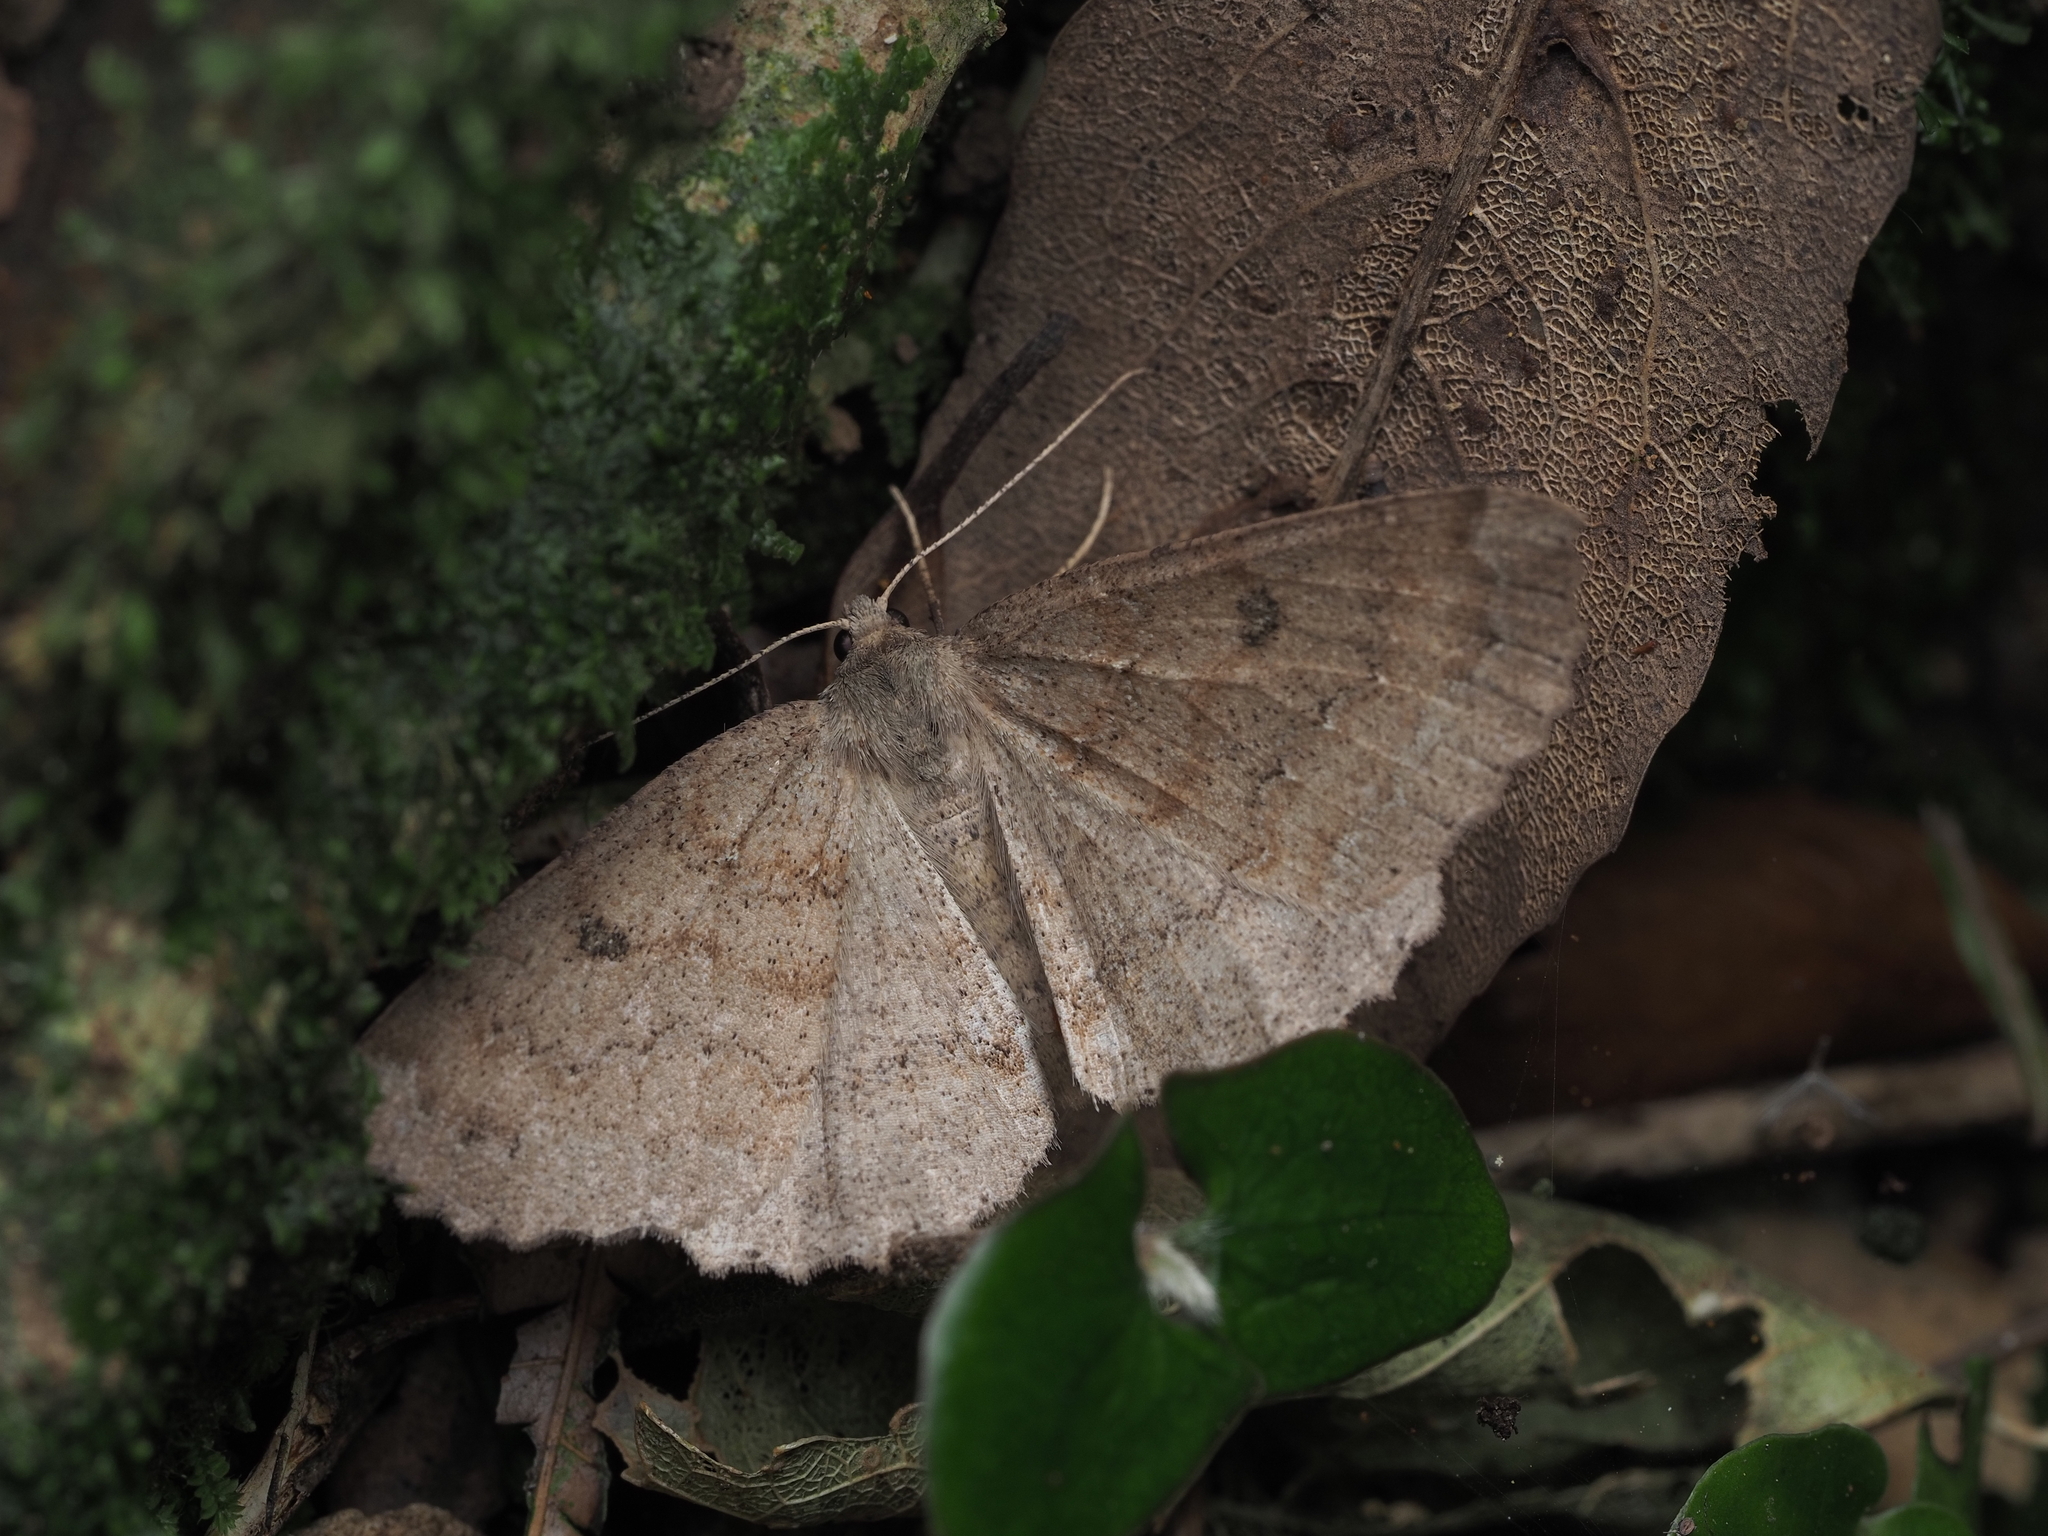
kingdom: Animalia
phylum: Arthropoda
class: Insecta
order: Lepidoptera
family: Geometridae
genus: Cleora
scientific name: Cleora scriptaria
